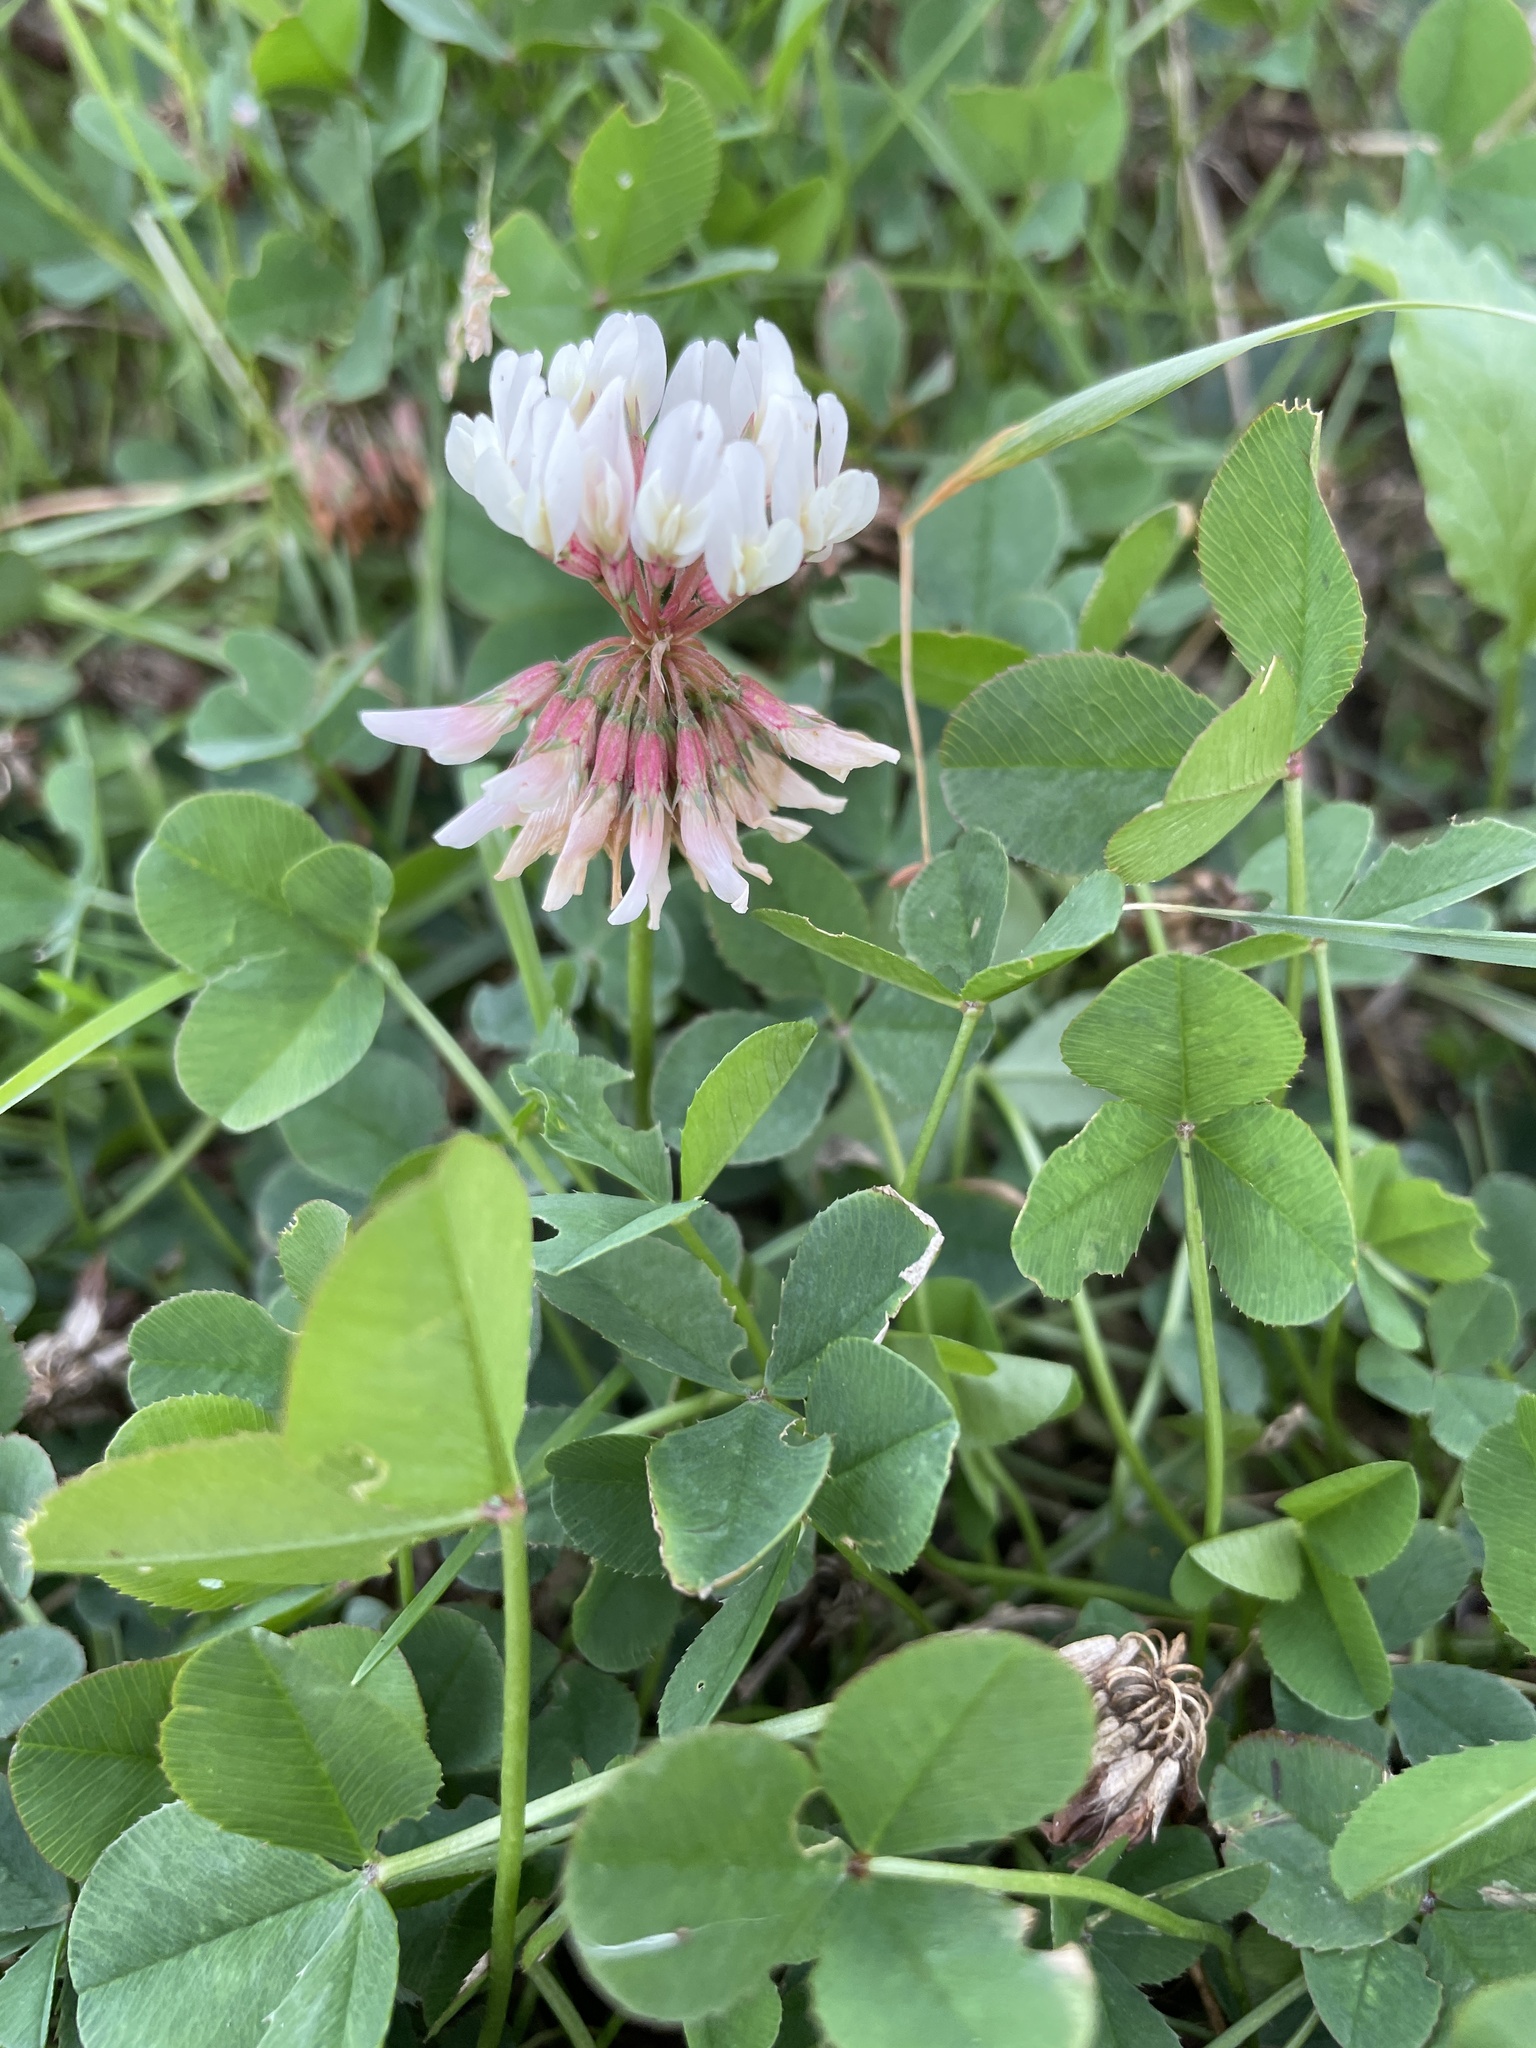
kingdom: Plantae
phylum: Tracheophyta
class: Magnoliopsida
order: Fabales
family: Fabaceae
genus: Trifolium
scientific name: Trifolium repens
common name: White clover
